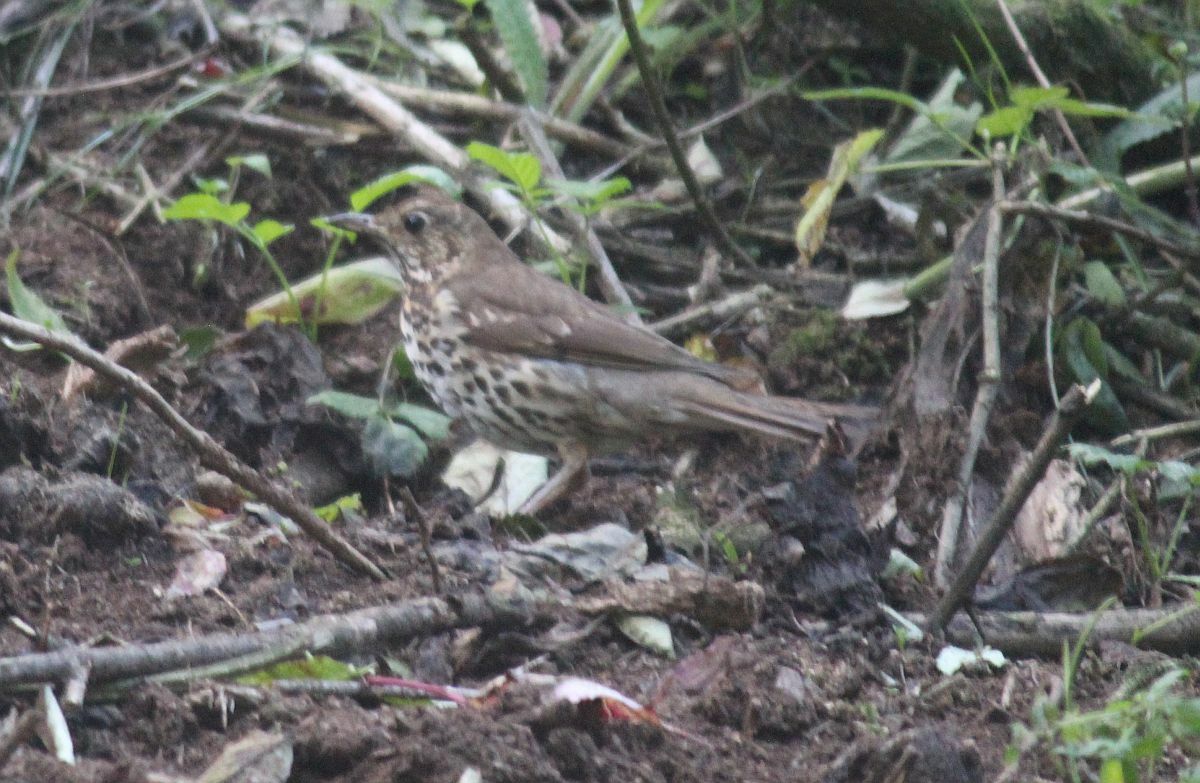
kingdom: Animalia
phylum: Chordata
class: Aves
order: Passeriformes
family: Turdidae
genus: Turdus
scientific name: Turdus philomelos
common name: Song thrush
